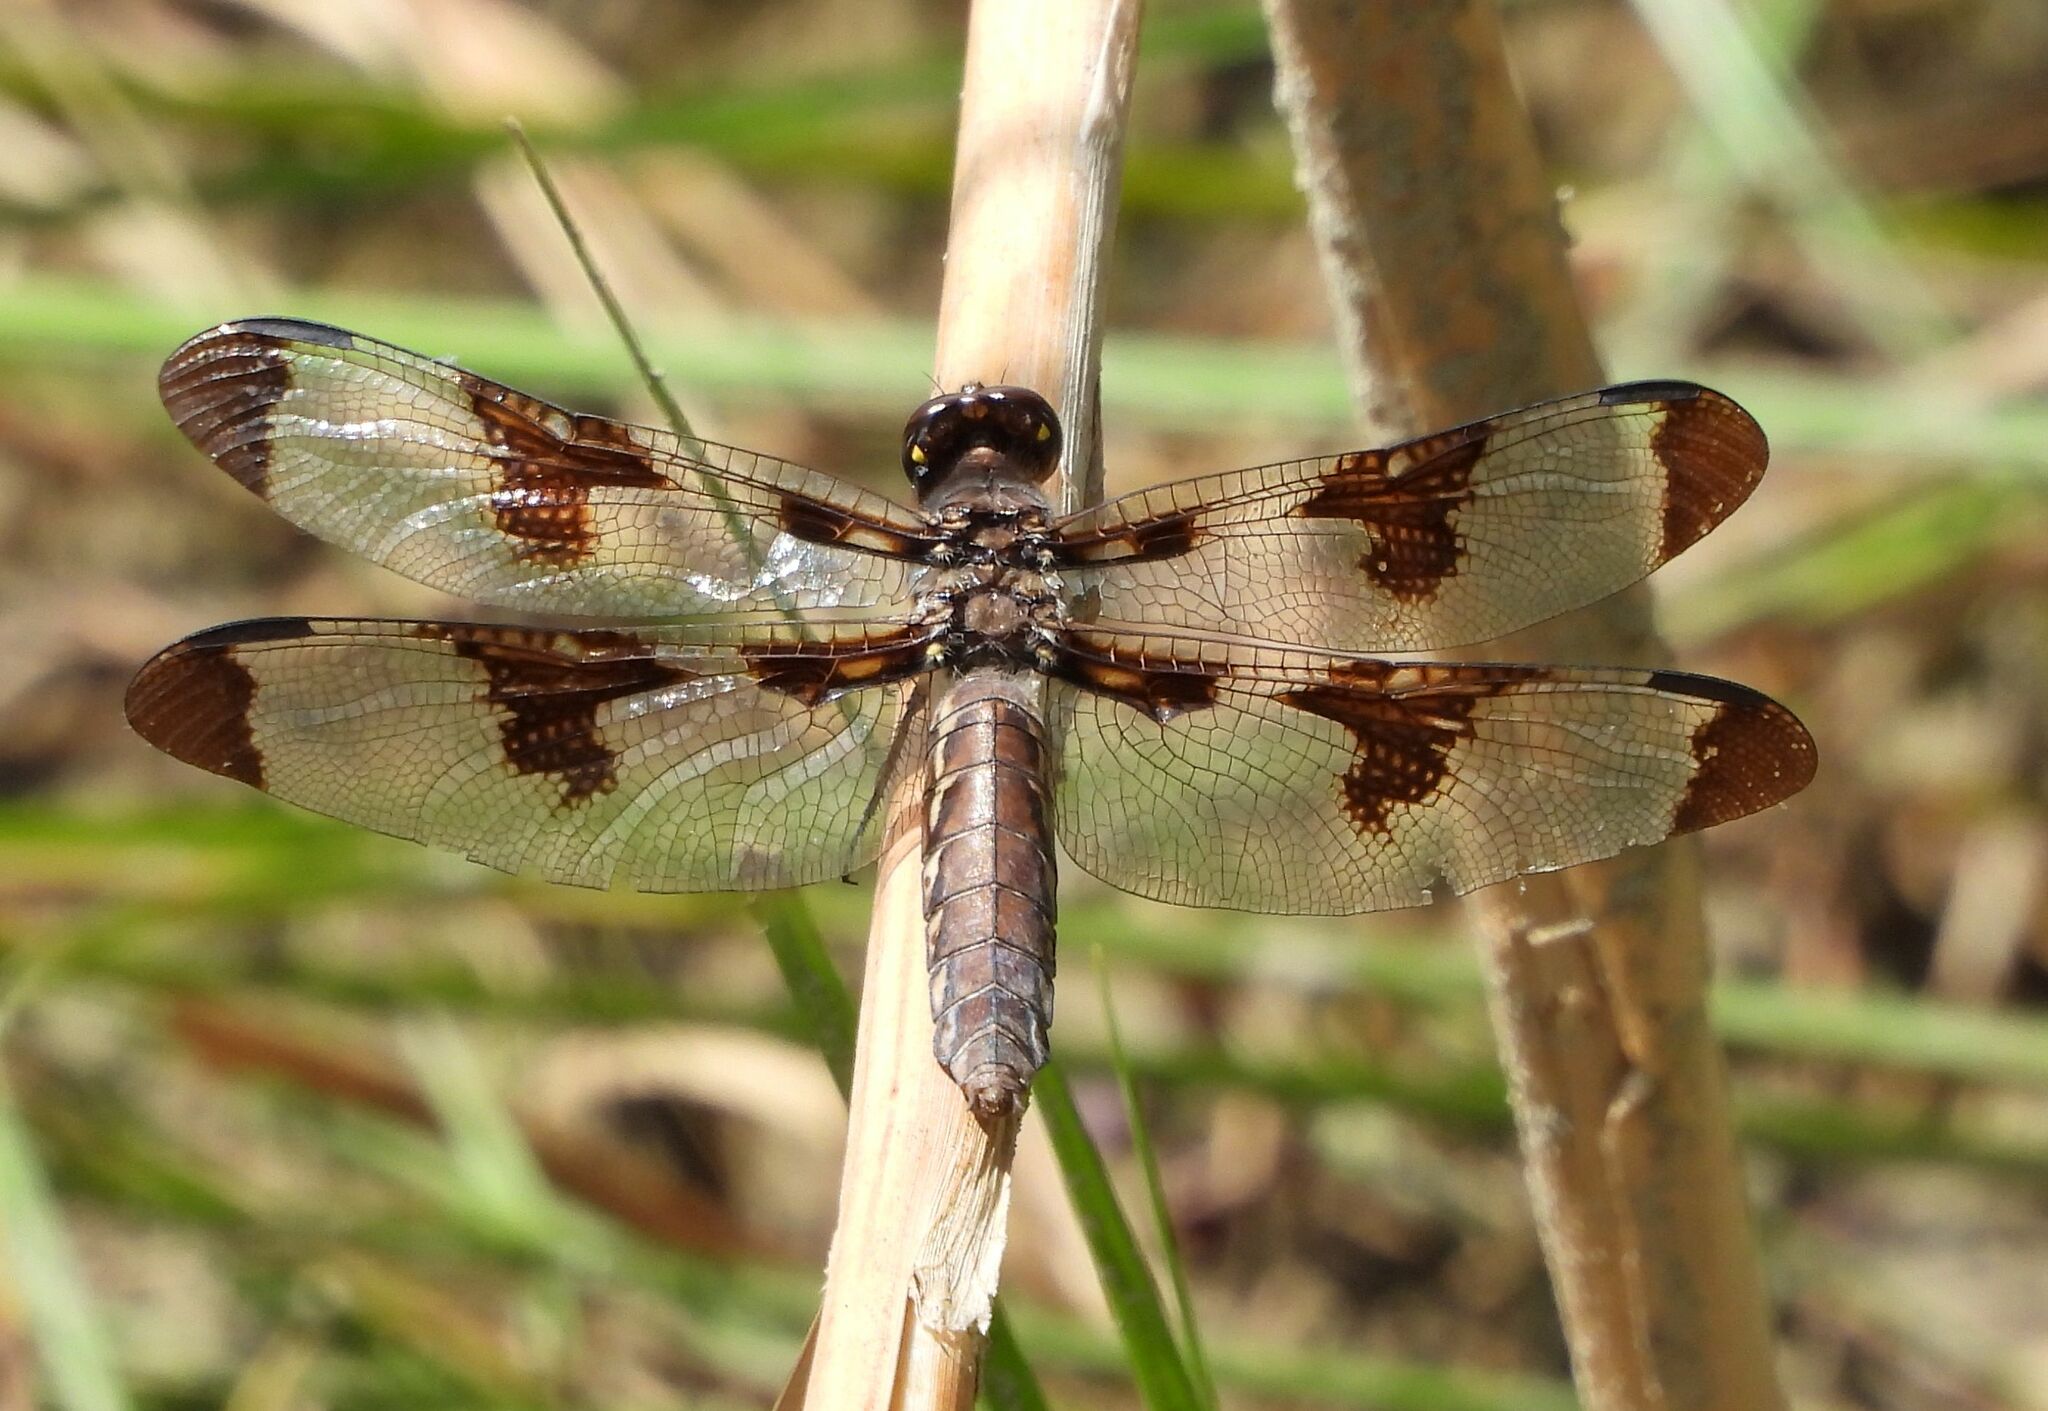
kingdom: Animalia
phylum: Arthropoda
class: Insecta
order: Odonata
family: Libellulidae
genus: Plathemis
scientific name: Plathemis lydia
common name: Common whitetail
